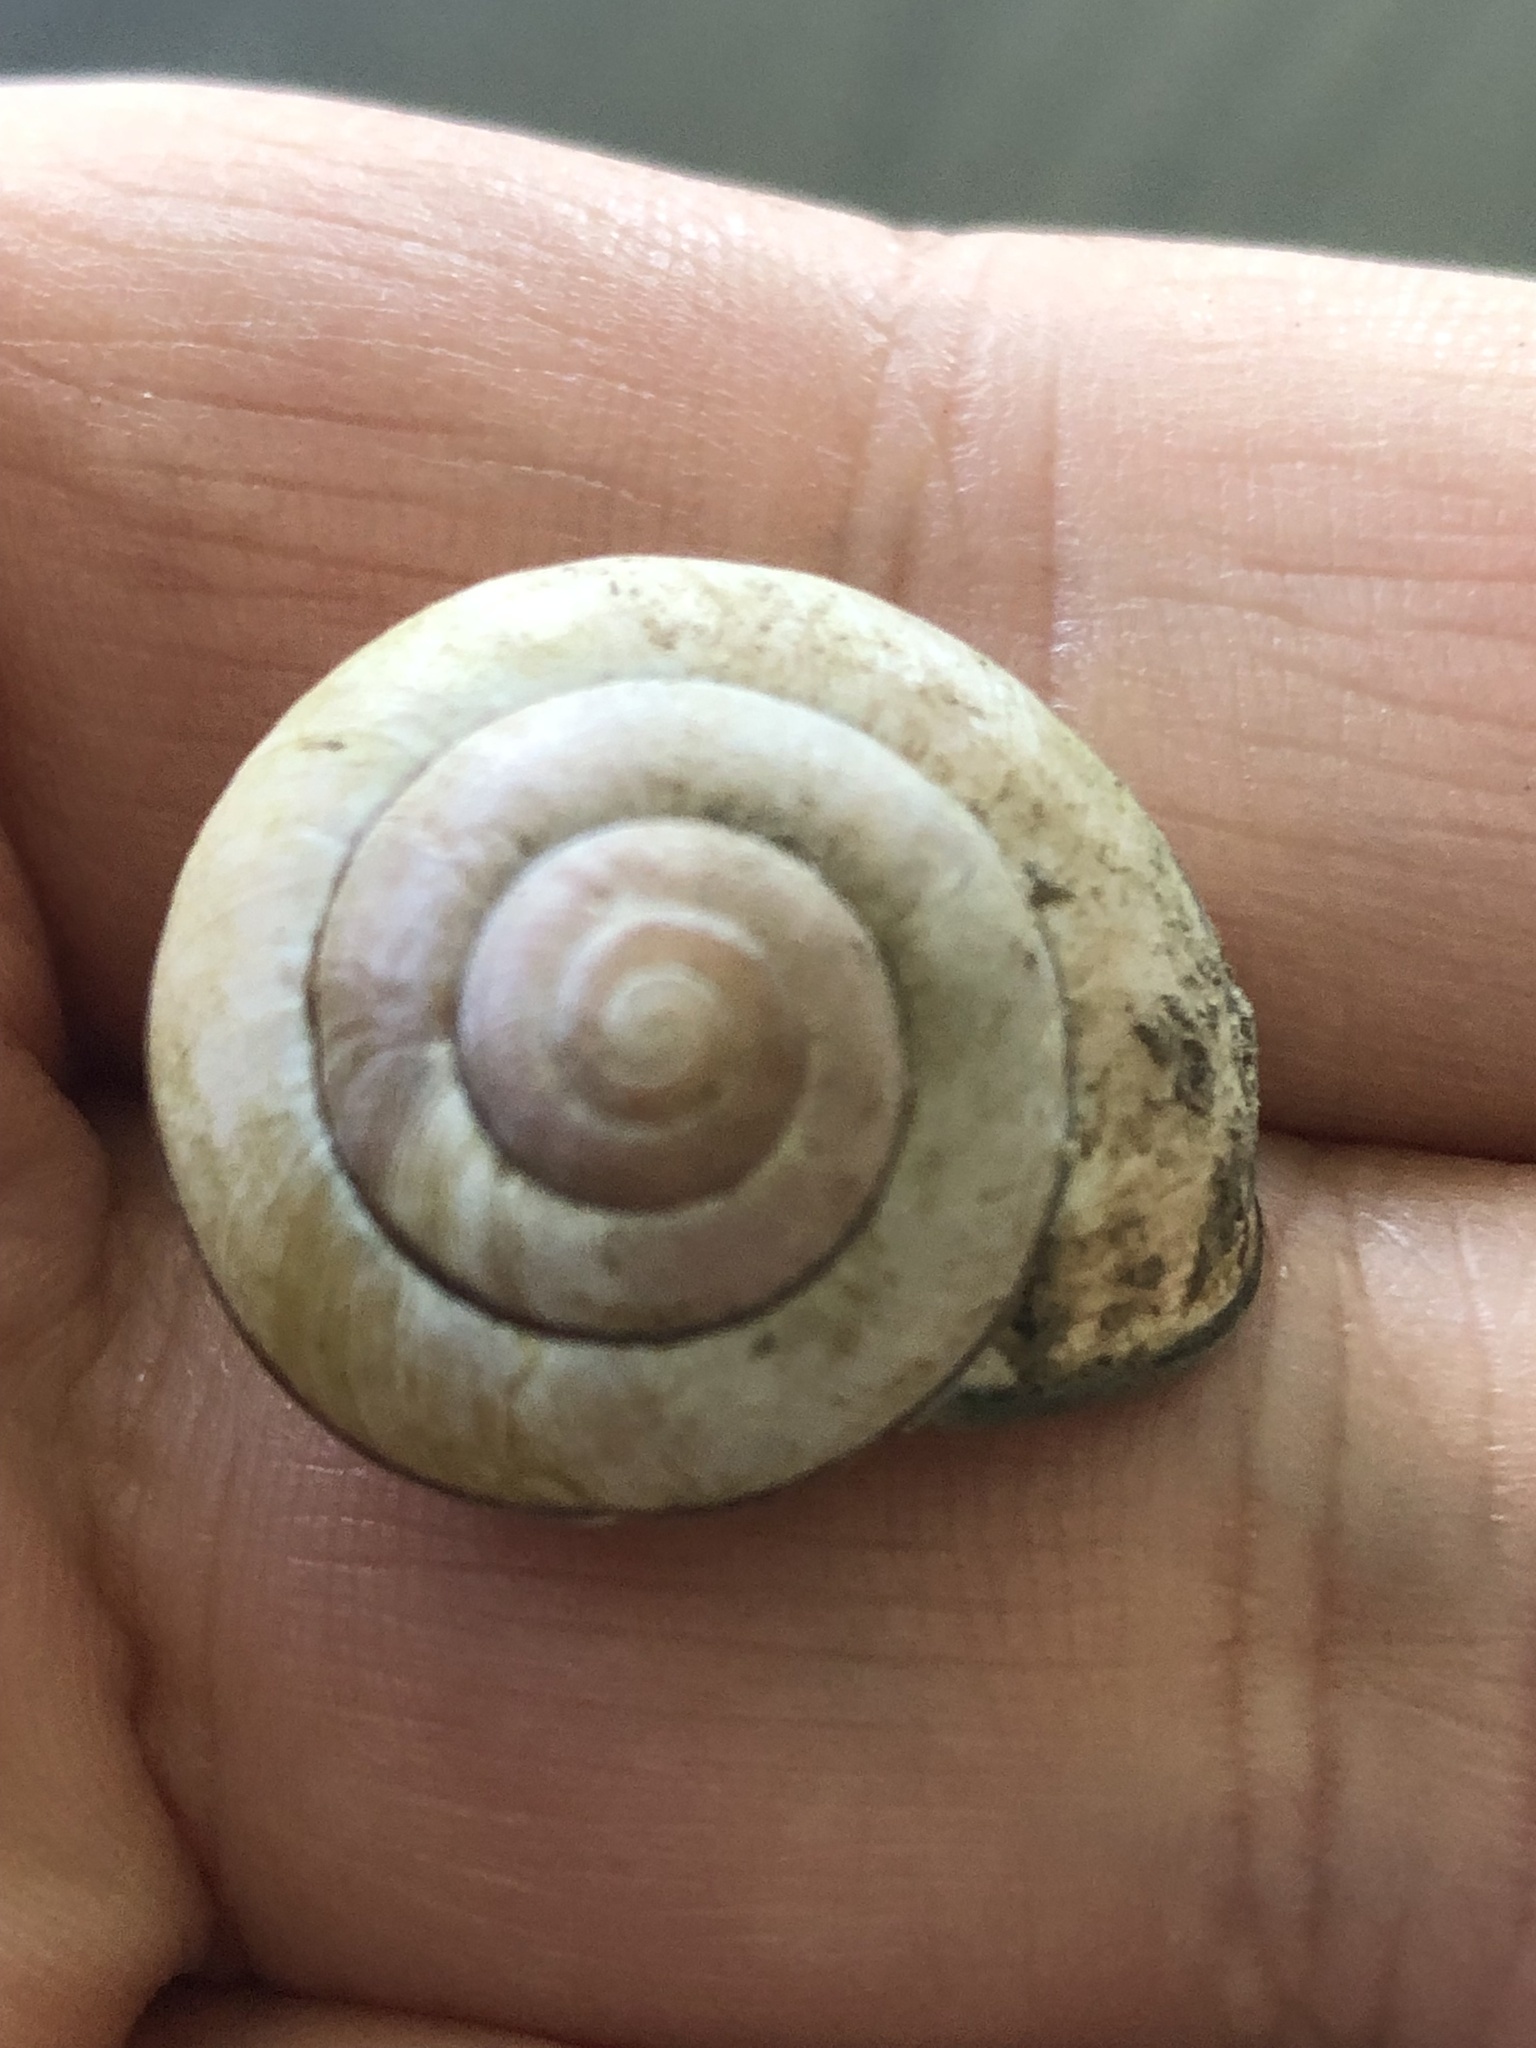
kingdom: Animalia
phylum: Mollusca
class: Gastropoda
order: Stylommatophora
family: Helicidae
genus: Cepaea
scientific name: Cepaea nemoralis
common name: Grovesnail
